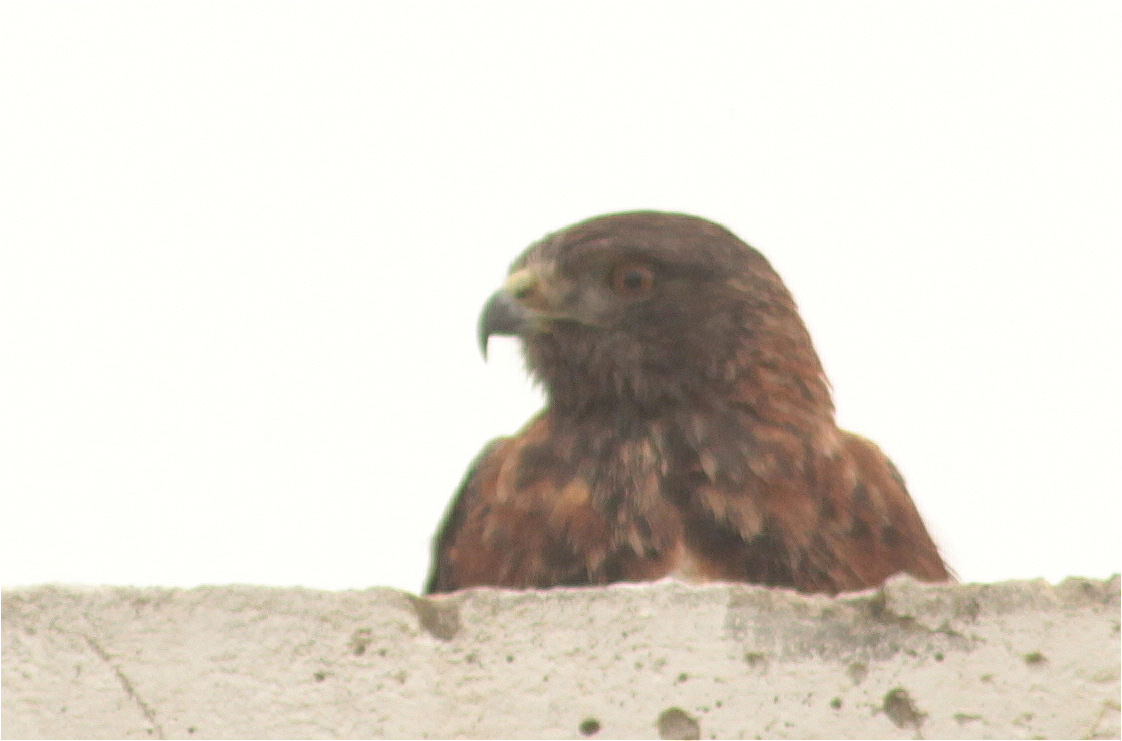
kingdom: Animalia
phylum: Chordata
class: Aves
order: Accipitriformes
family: Accipitridae
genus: Buteo
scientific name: Buteo polyosoma
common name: Variable hawk
